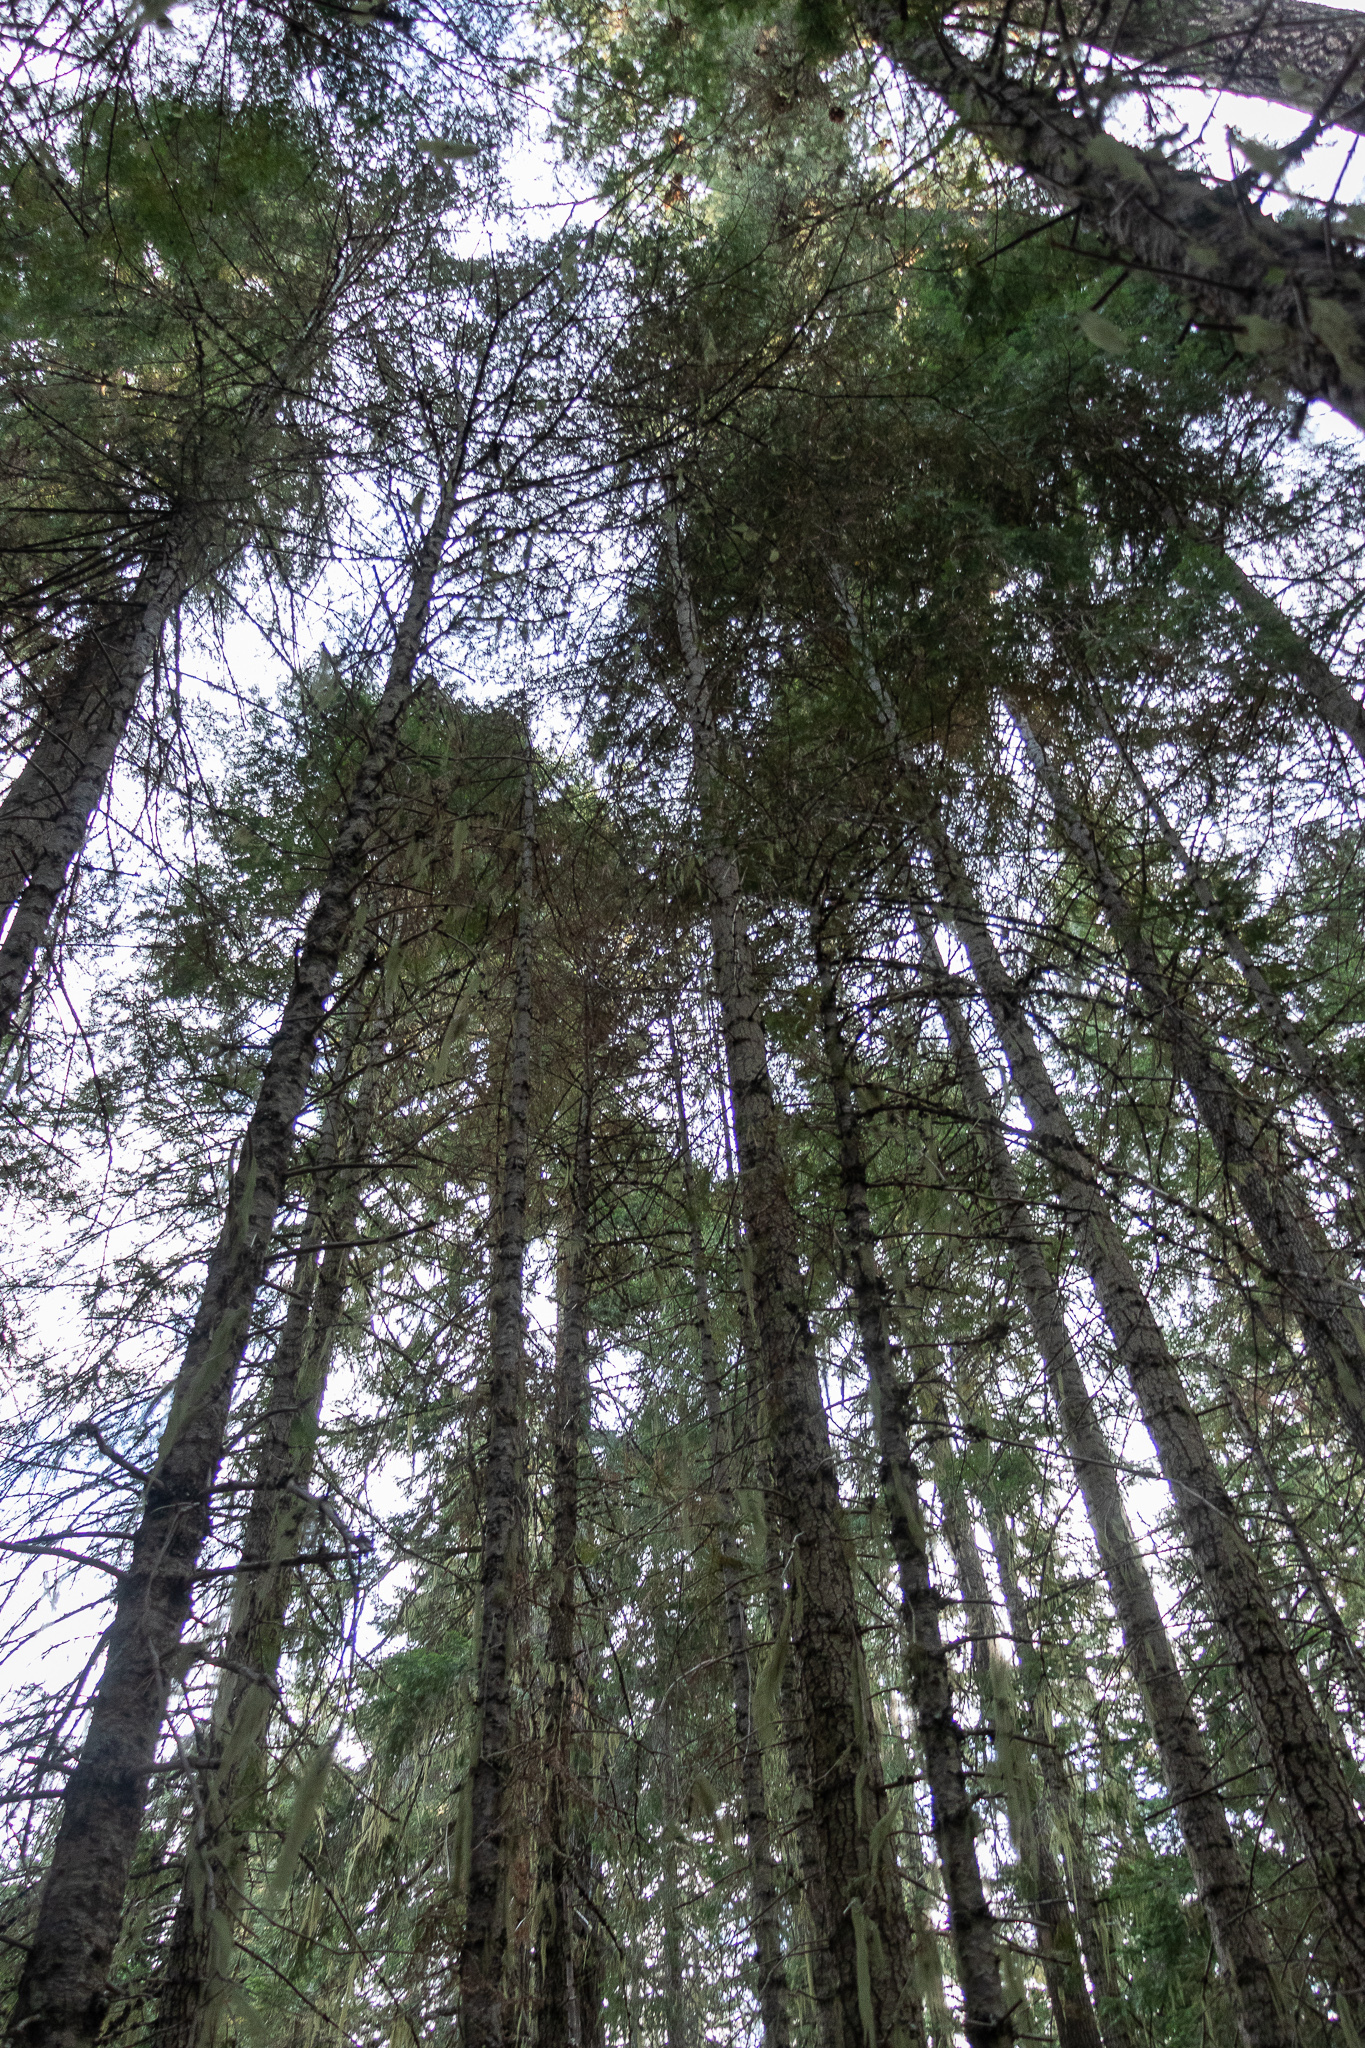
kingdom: Fungi
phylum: Ascomycota
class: Pezizomycetes
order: Pezizales
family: Tuberaceae
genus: Tuber
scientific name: Tuber whetstonense
